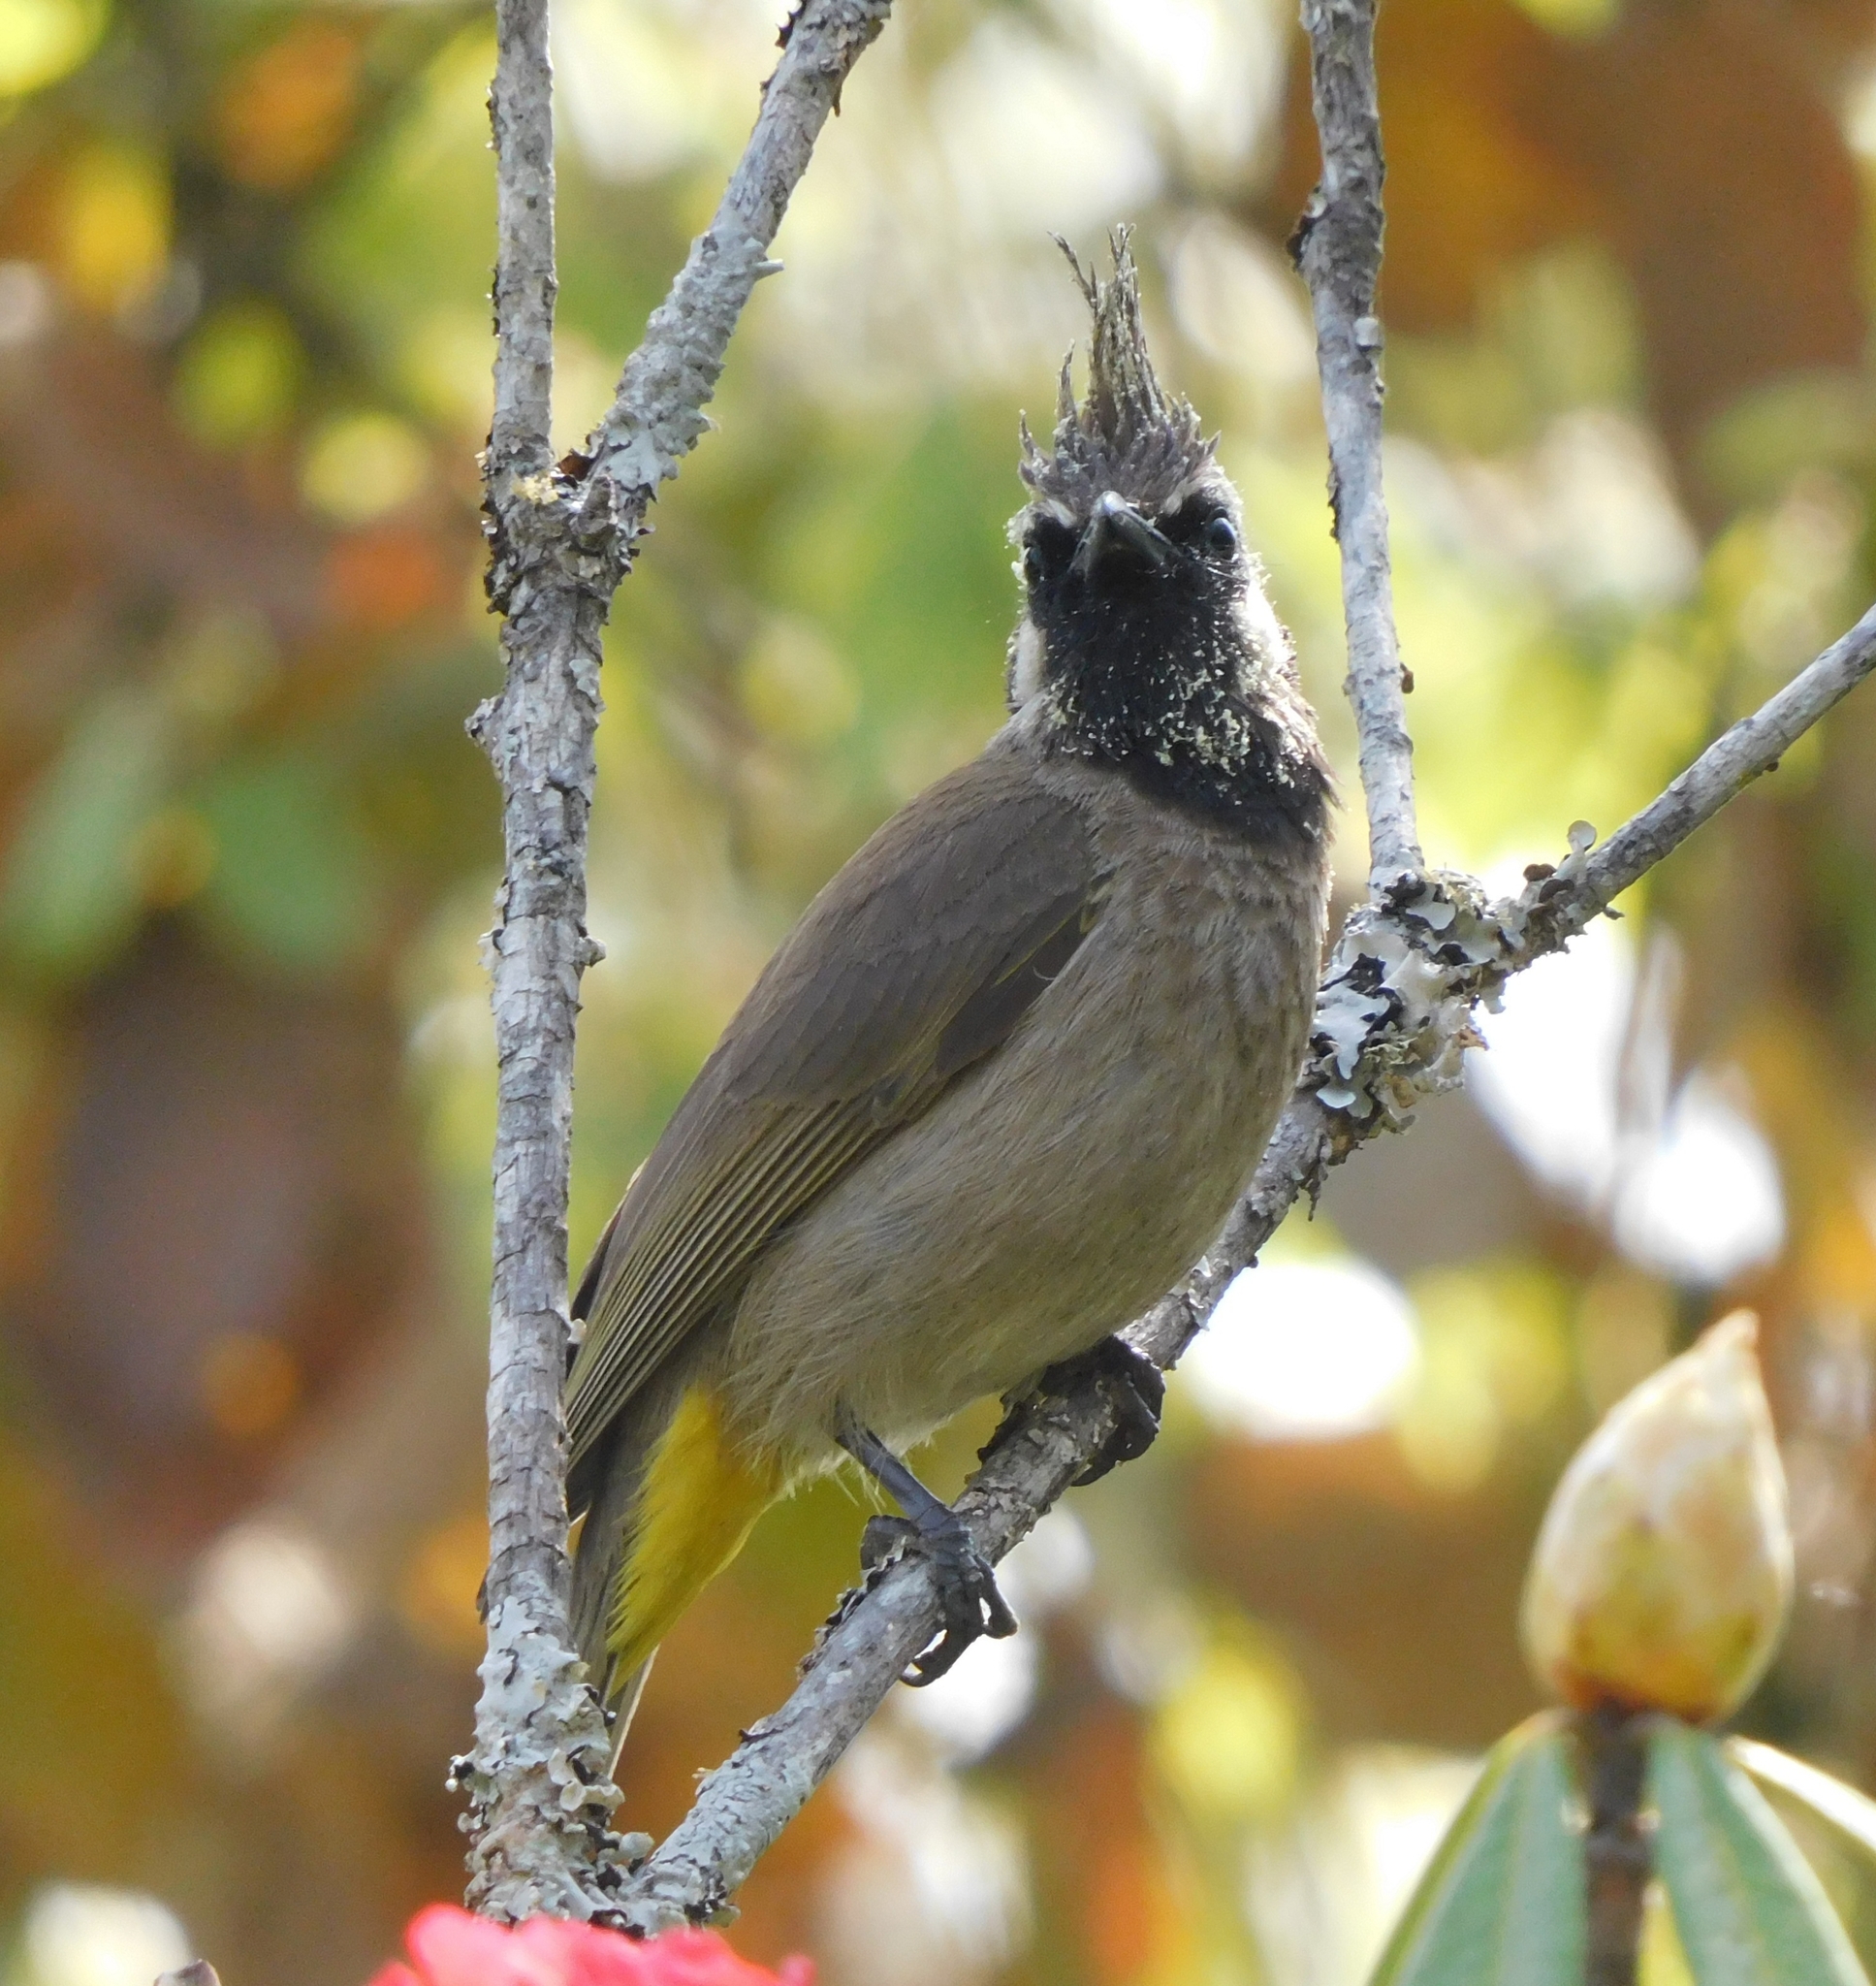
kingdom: Animalia
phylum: Chordata
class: Aves
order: Passeriformes
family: Pycnonotidae
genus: Pycnonotus
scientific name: Pycnonotus leucogenys
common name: Himalayan bulbul
